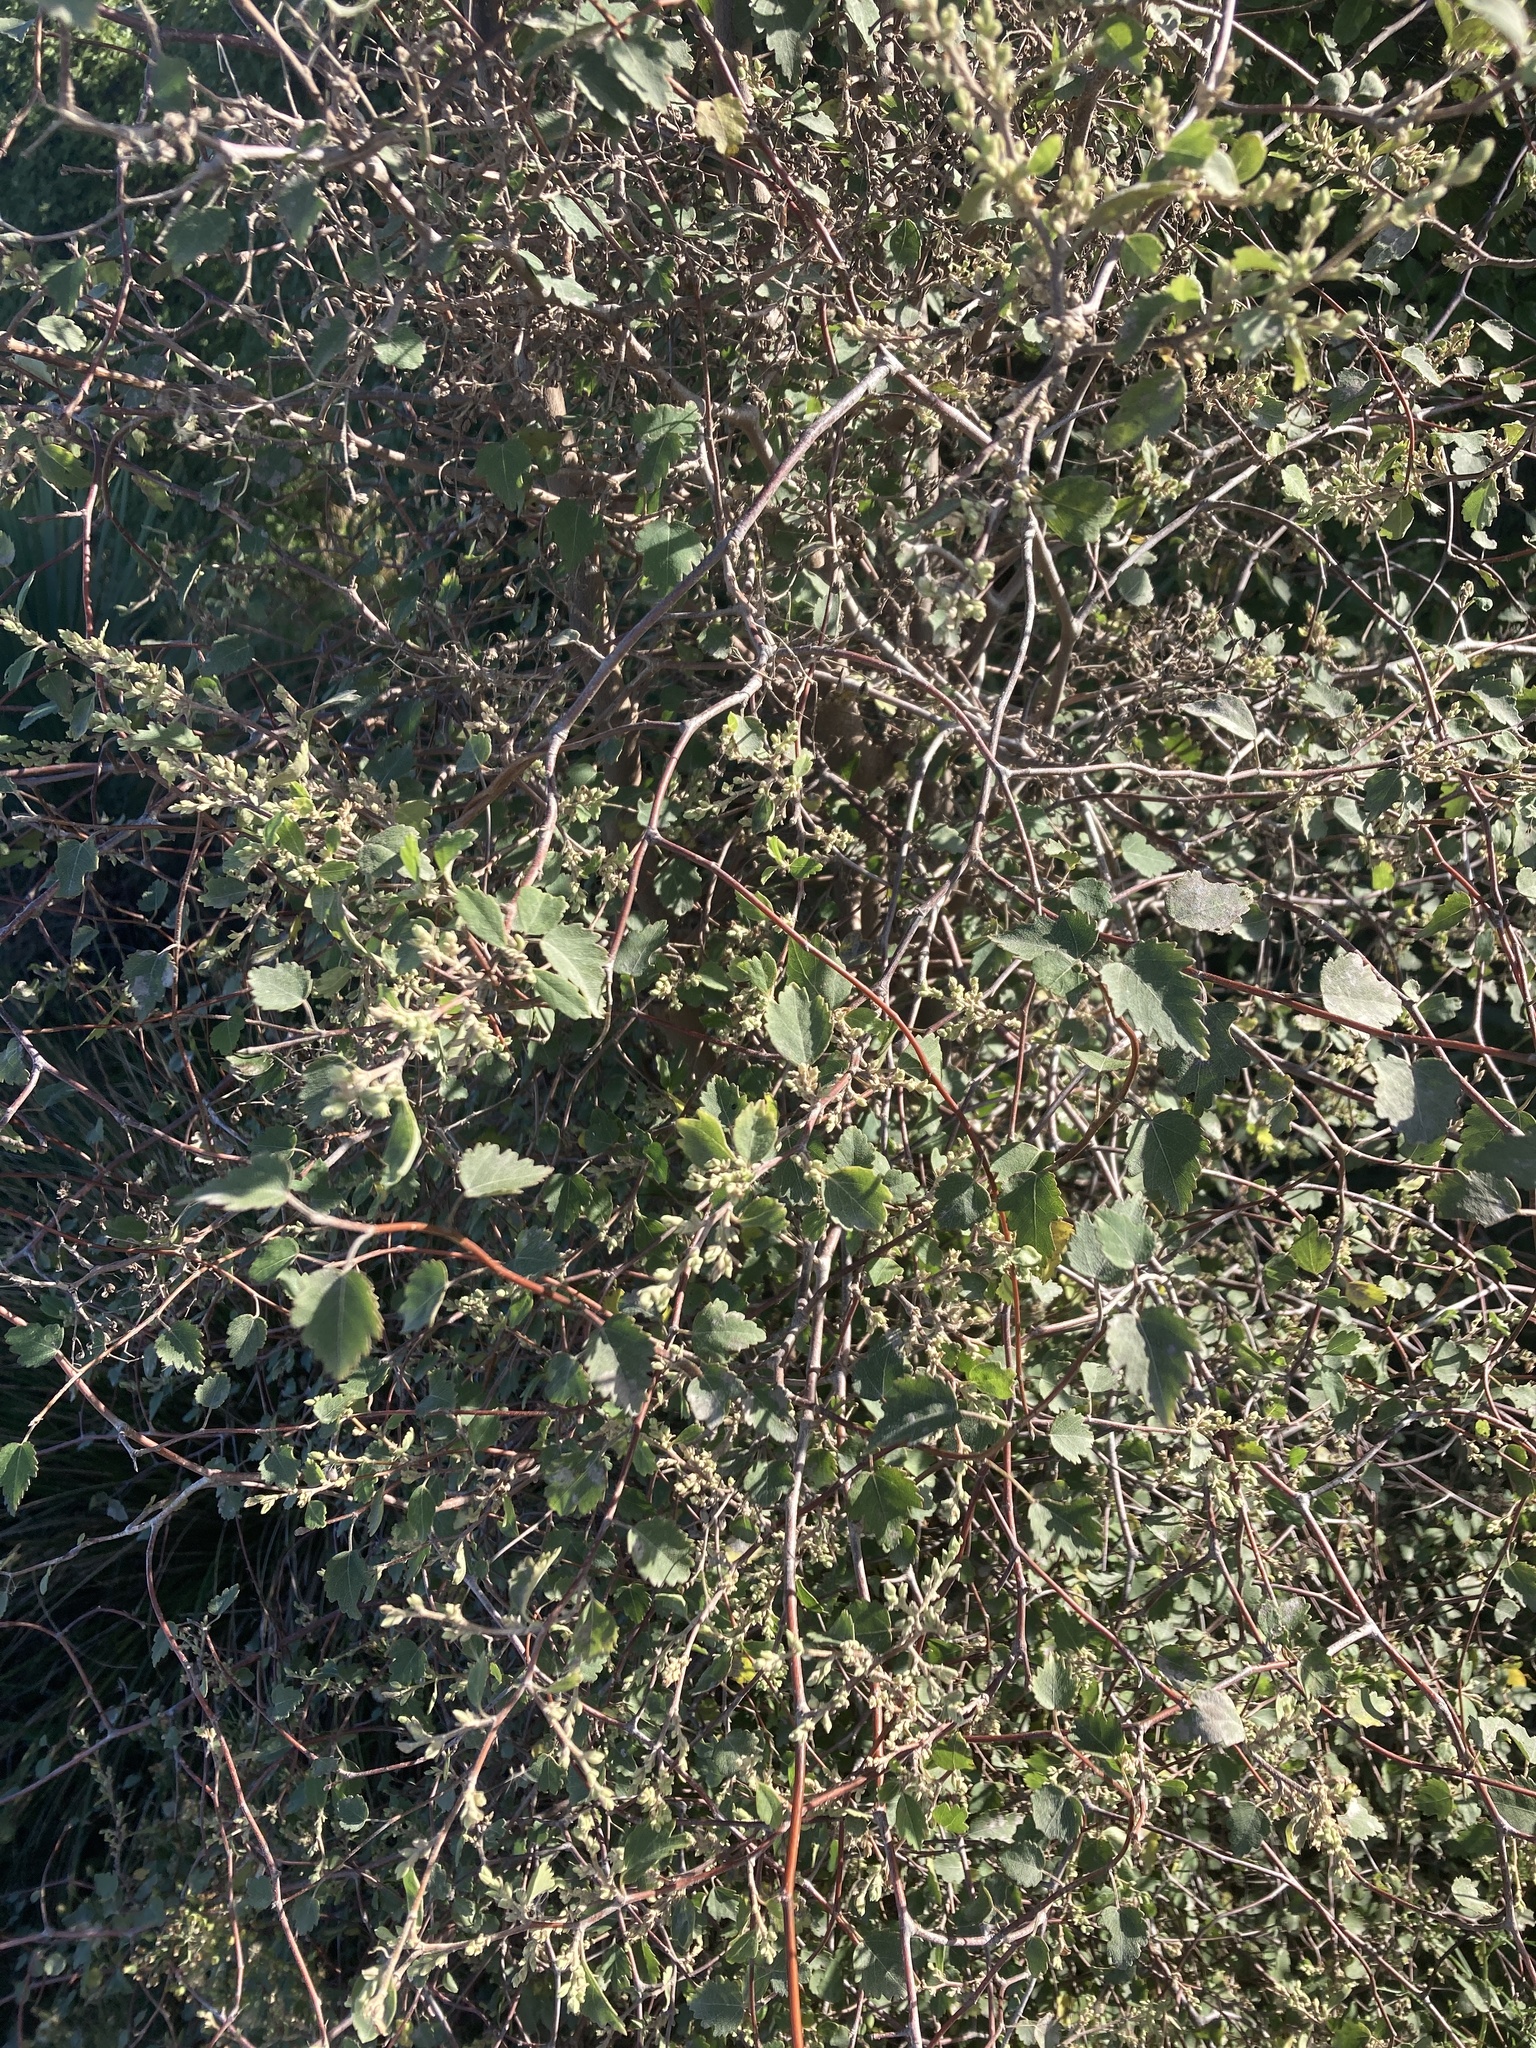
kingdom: Plantae
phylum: Tracheophyta
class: Magnoliopsida
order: Malvales
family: Malvaceae
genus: Plagianthus
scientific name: Plagianthus regius
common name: Manatu
